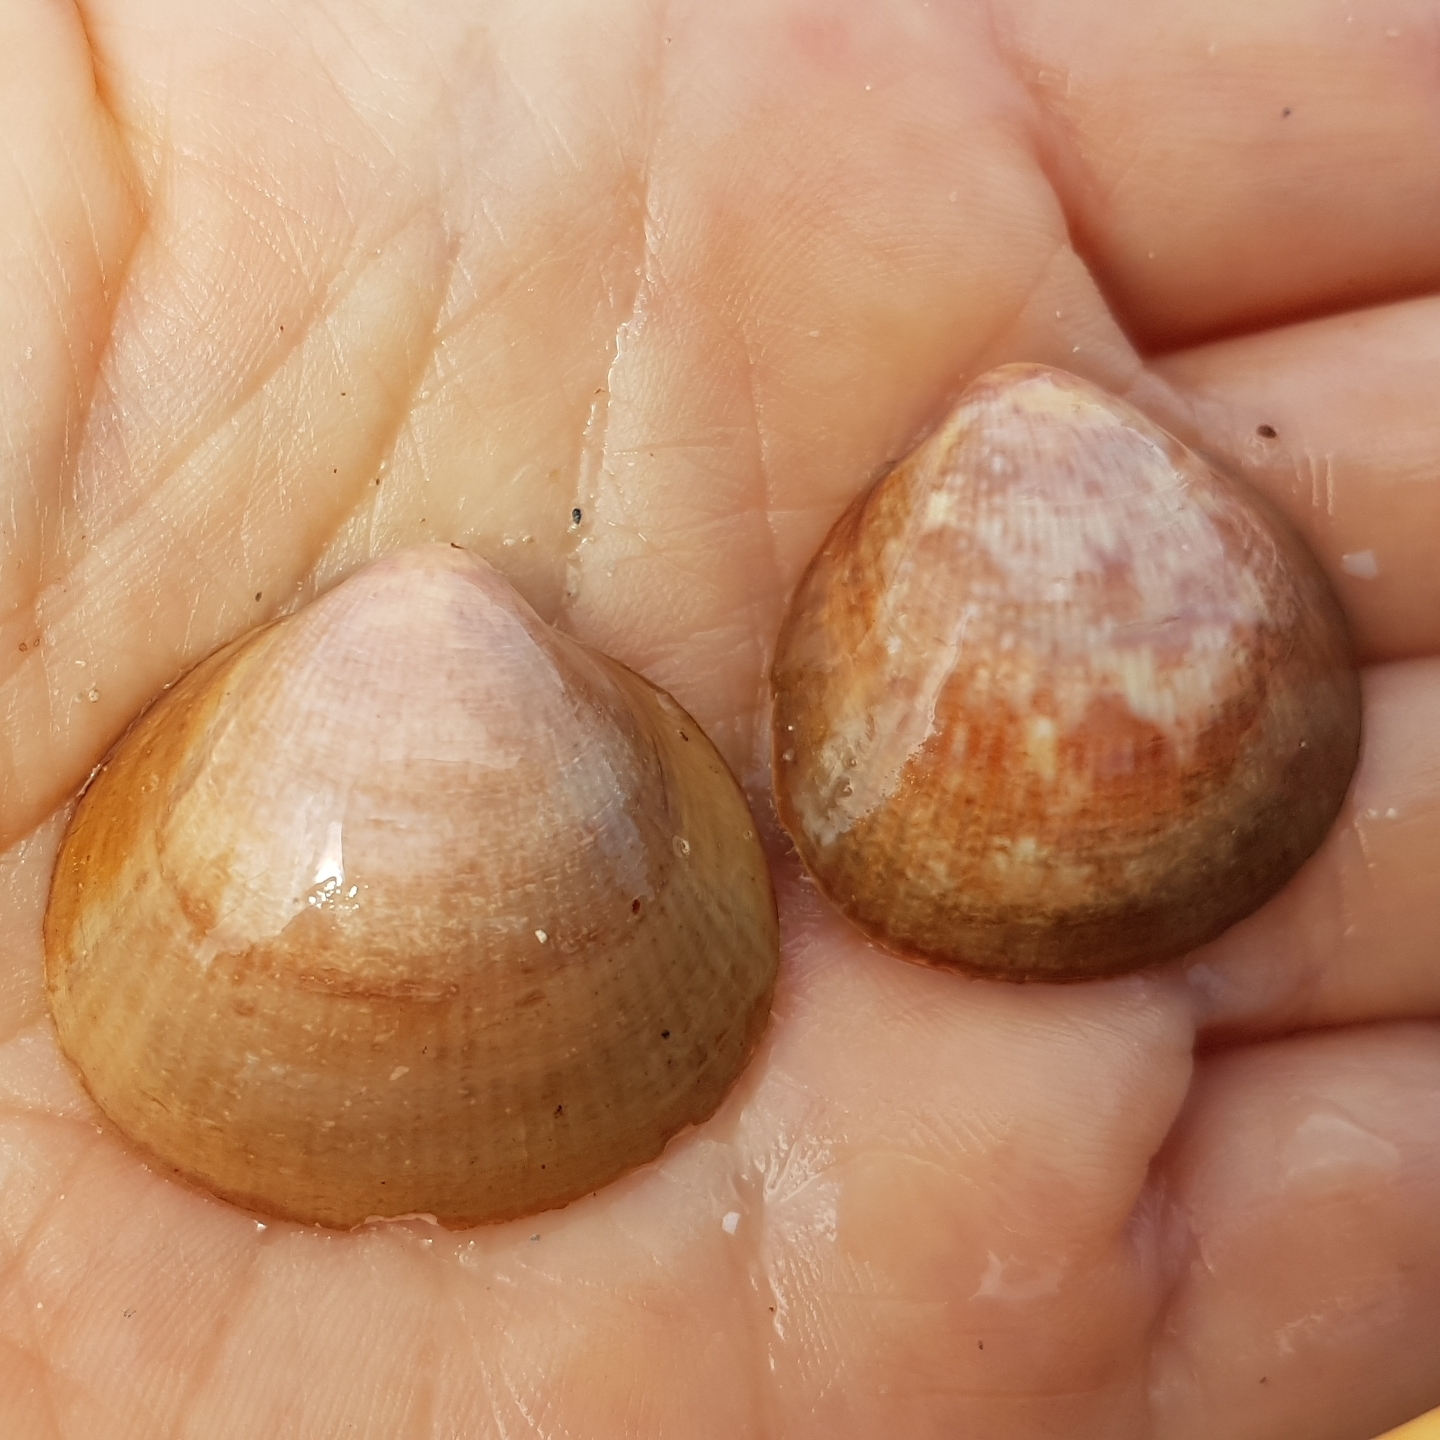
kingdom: Animalia
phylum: Mollusca
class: Bivalvia
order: Cardiida
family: Cardiidae
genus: Laevicardium
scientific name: Laevicardium crassum
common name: Norway cockle
